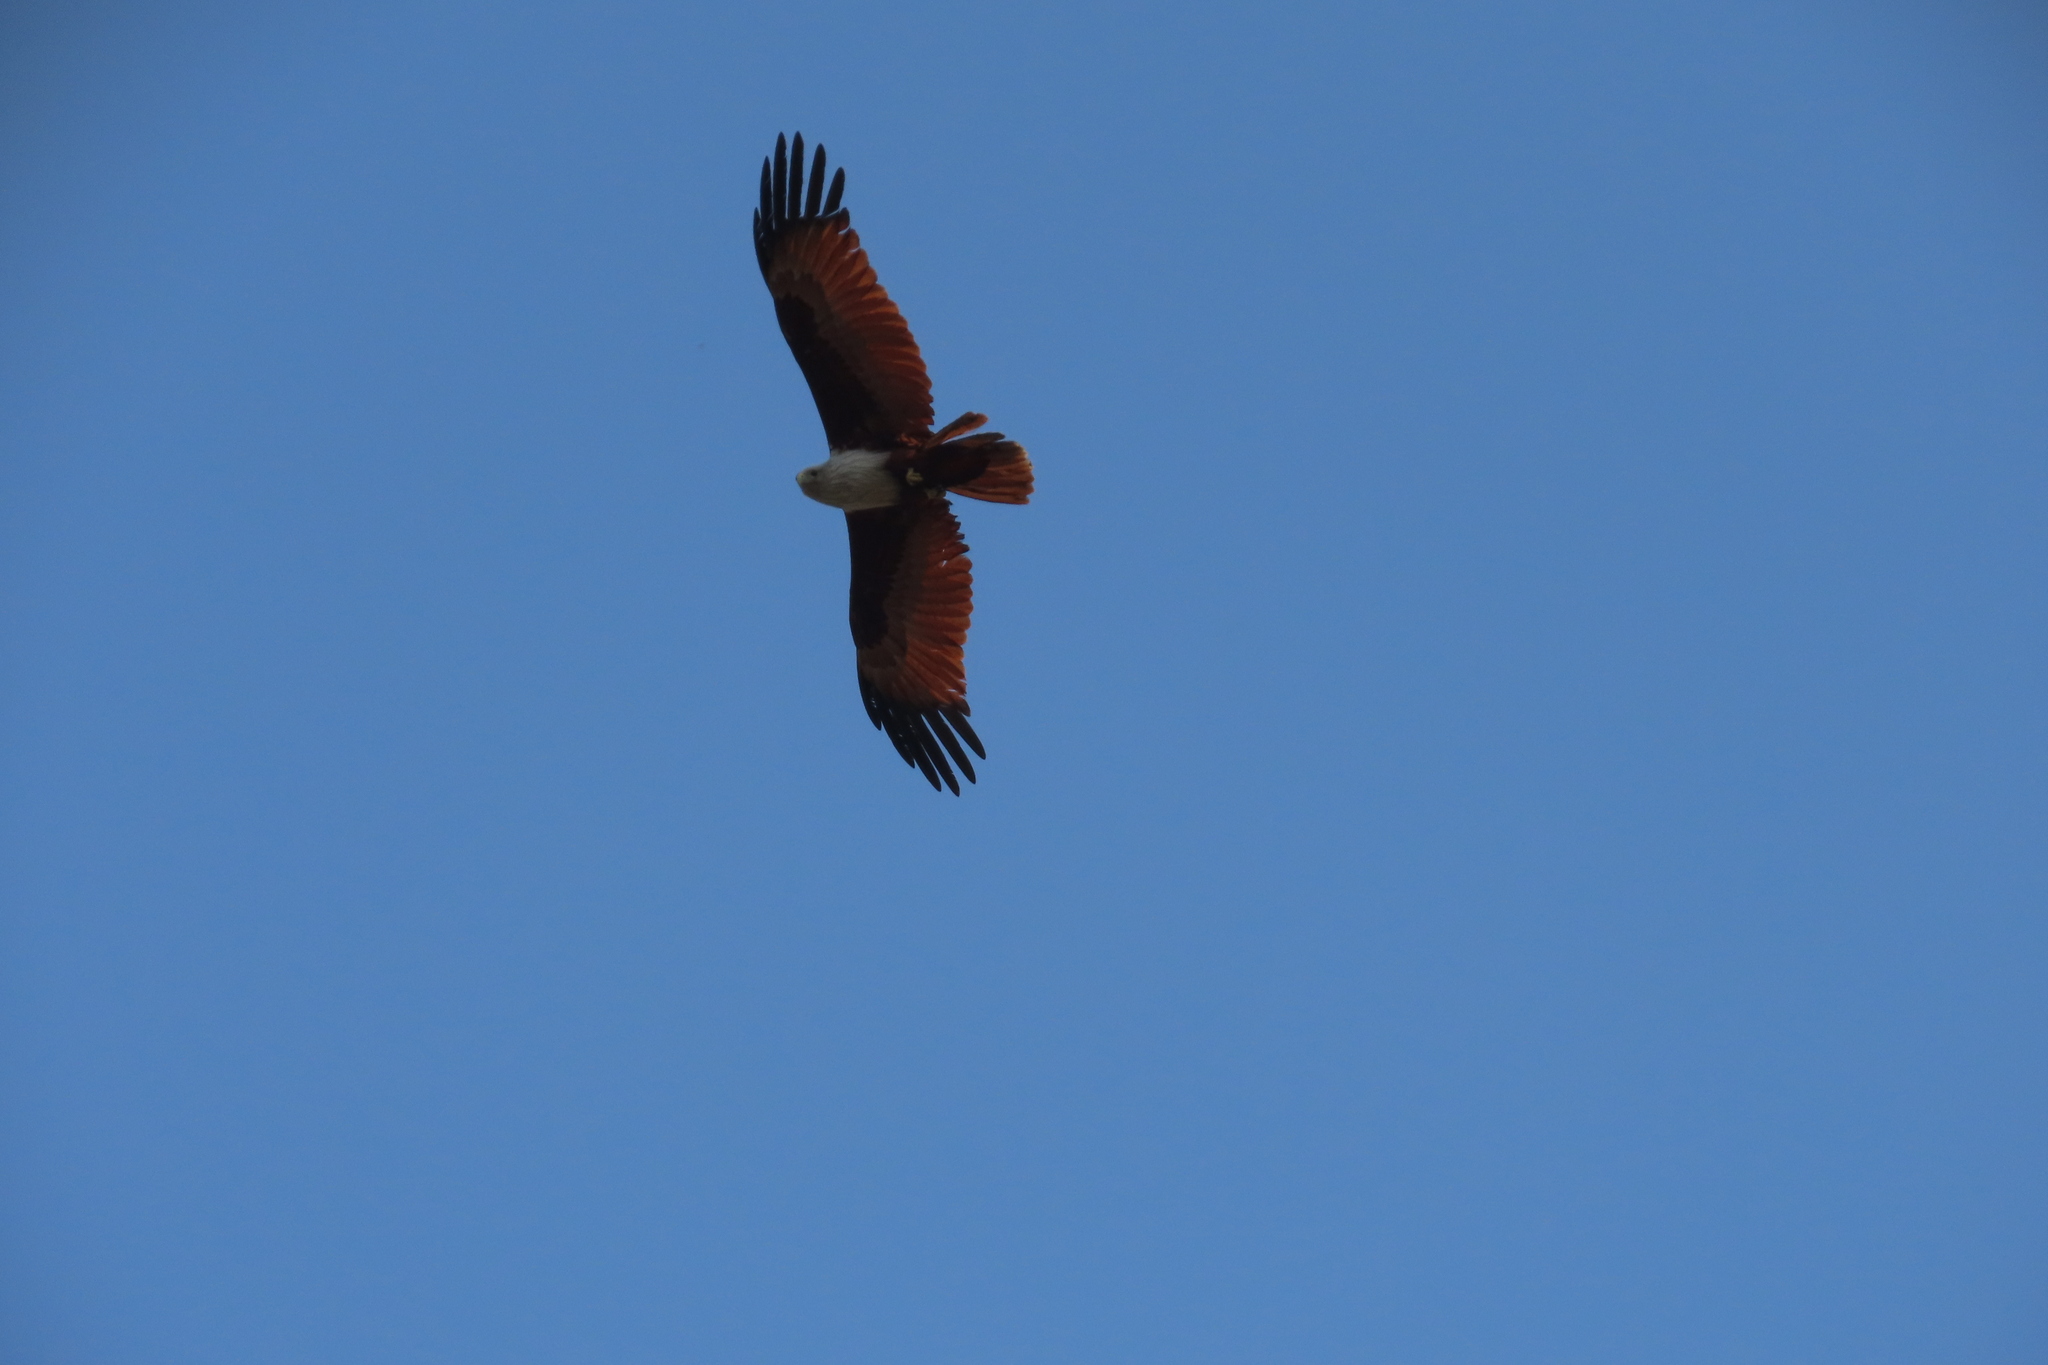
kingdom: Animalia
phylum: Chordata
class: Aves
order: Accipitriformes
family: Accipitridae
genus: Haliastur
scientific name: Haliastur indus
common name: Brahminy kite
